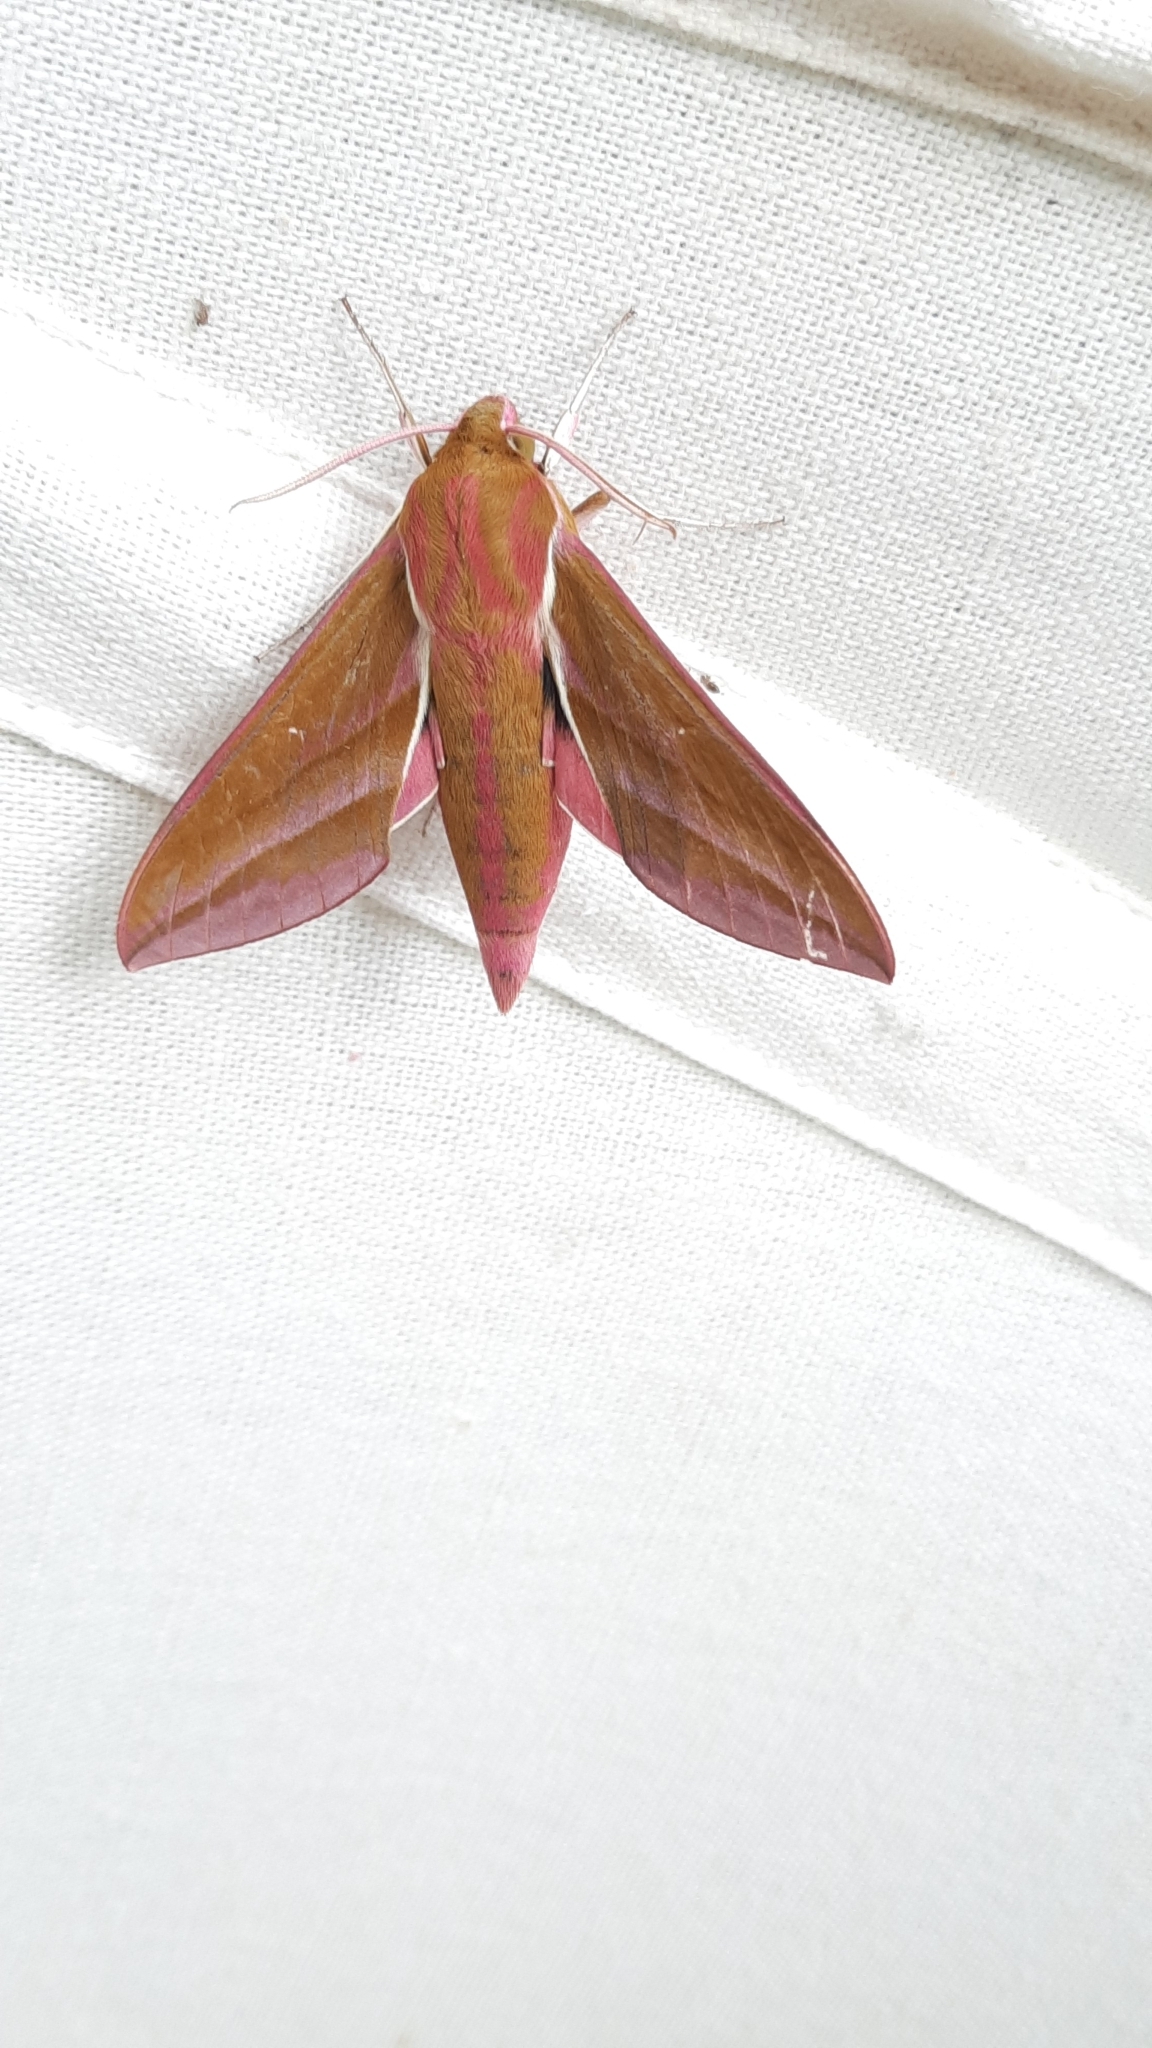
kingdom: Animalia
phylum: Arthropoda
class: Insecta
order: Lepidoptera
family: Sphingidae
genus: Deilephila
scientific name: Deilephila elpenor
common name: Elephant hawk-moth
